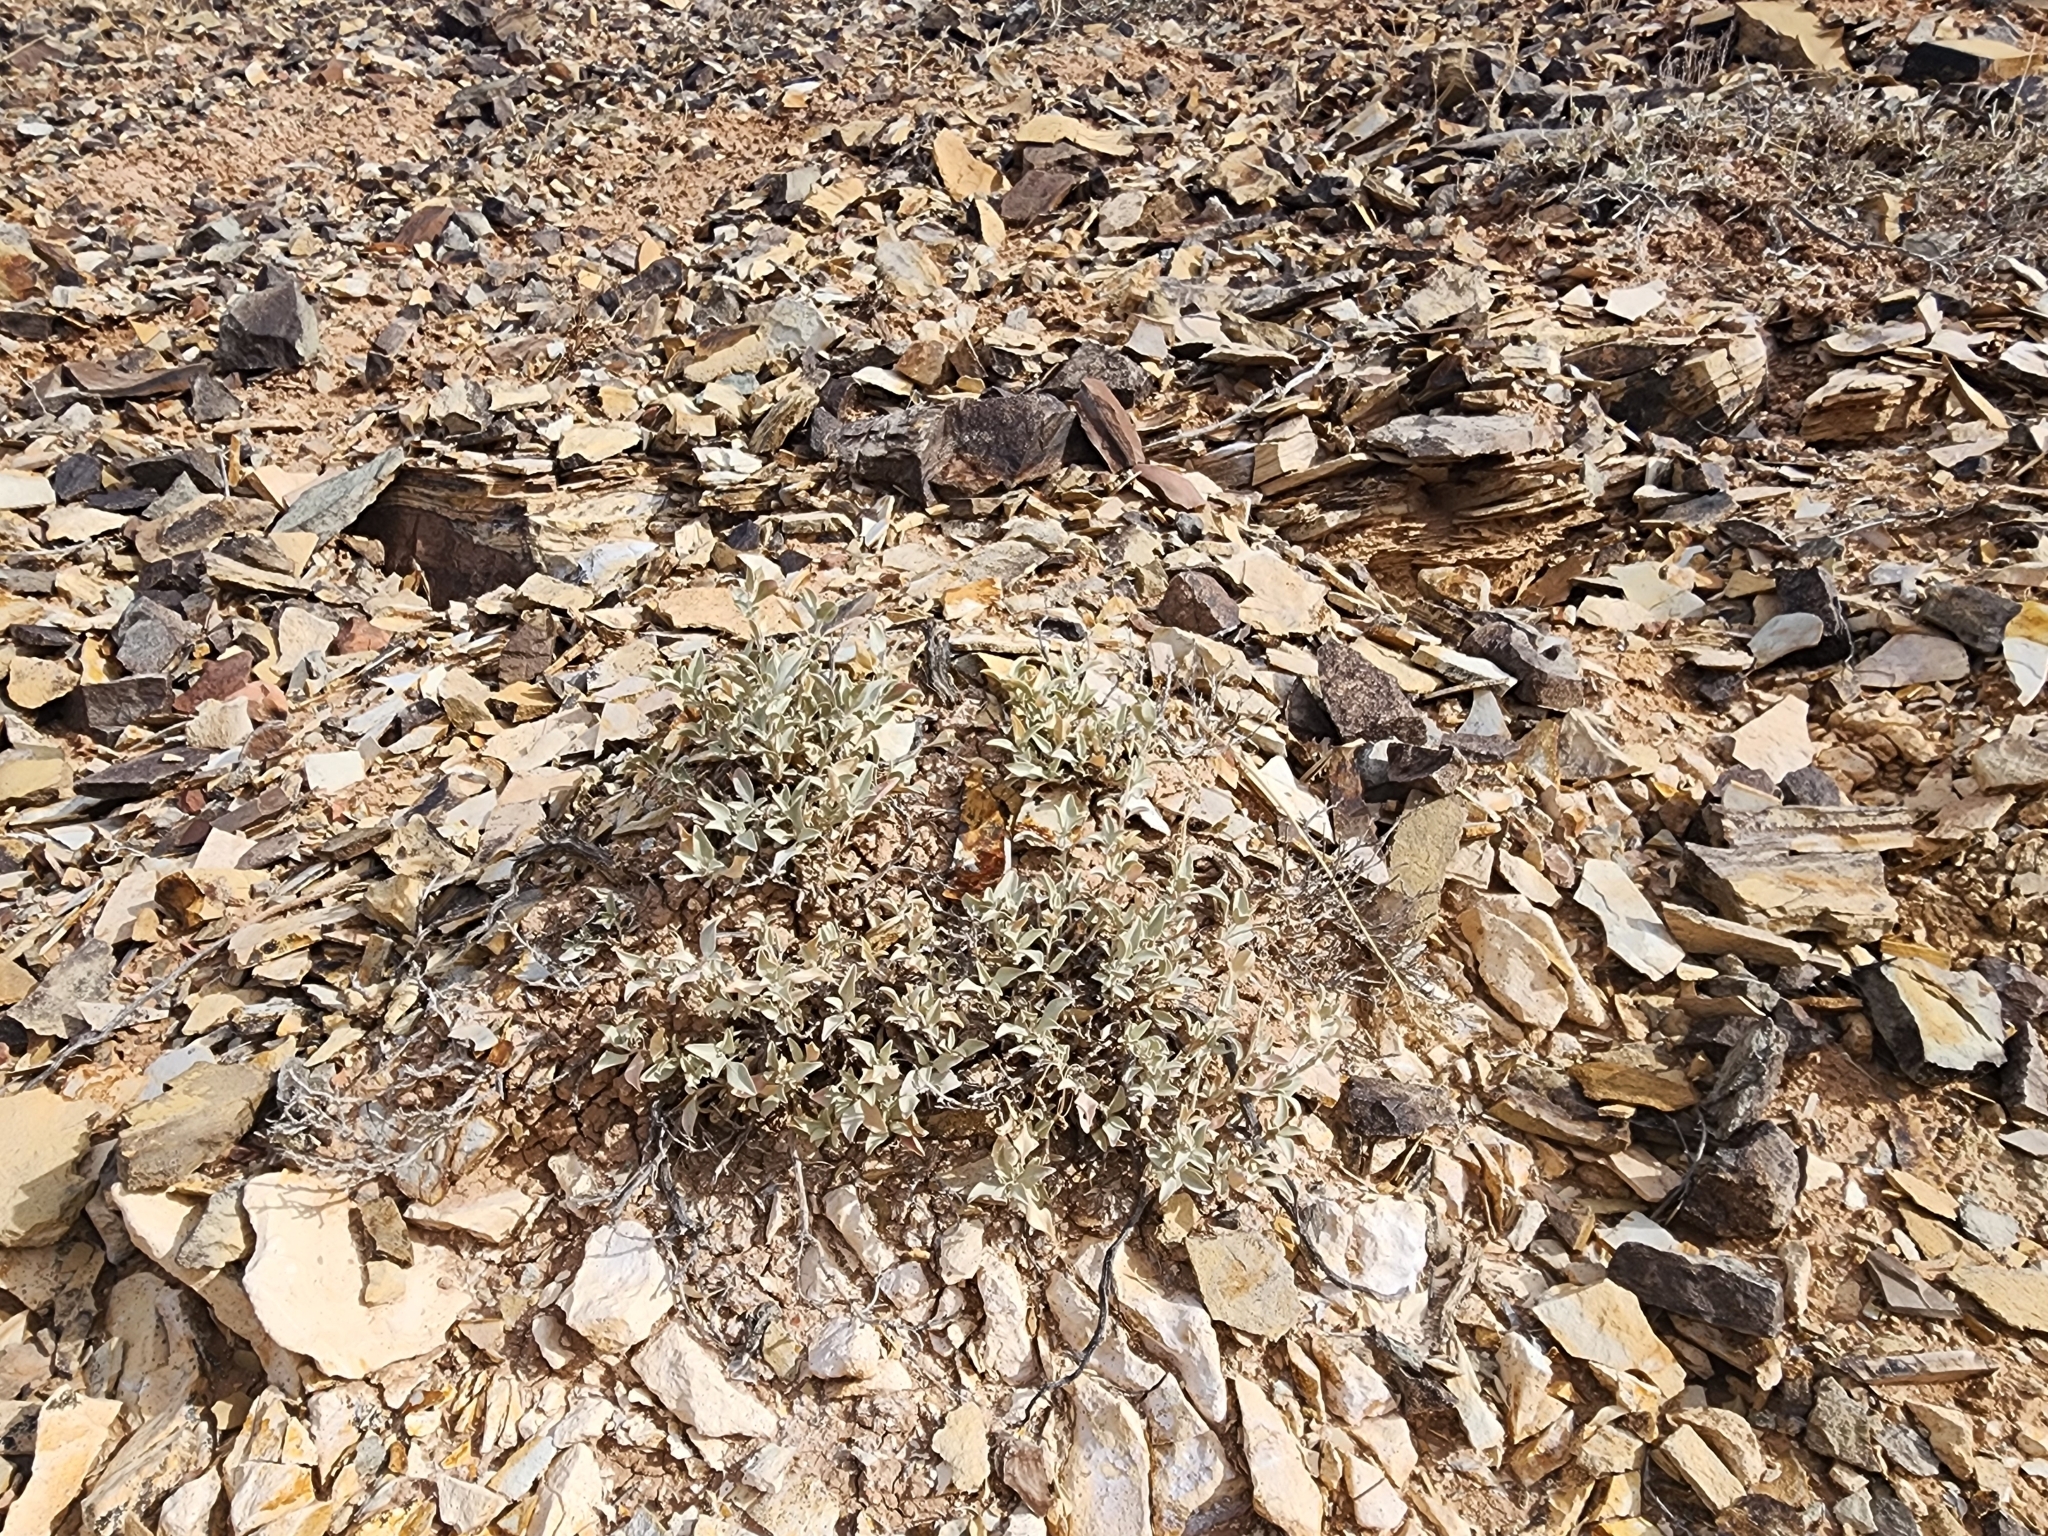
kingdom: Plantae
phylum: Tracheophyta
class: Magnoliopsida
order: Caryophyllales
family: Amaranthaceae
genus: Atriplex
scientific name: Atriplex gardneri
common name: Gardner's orache
